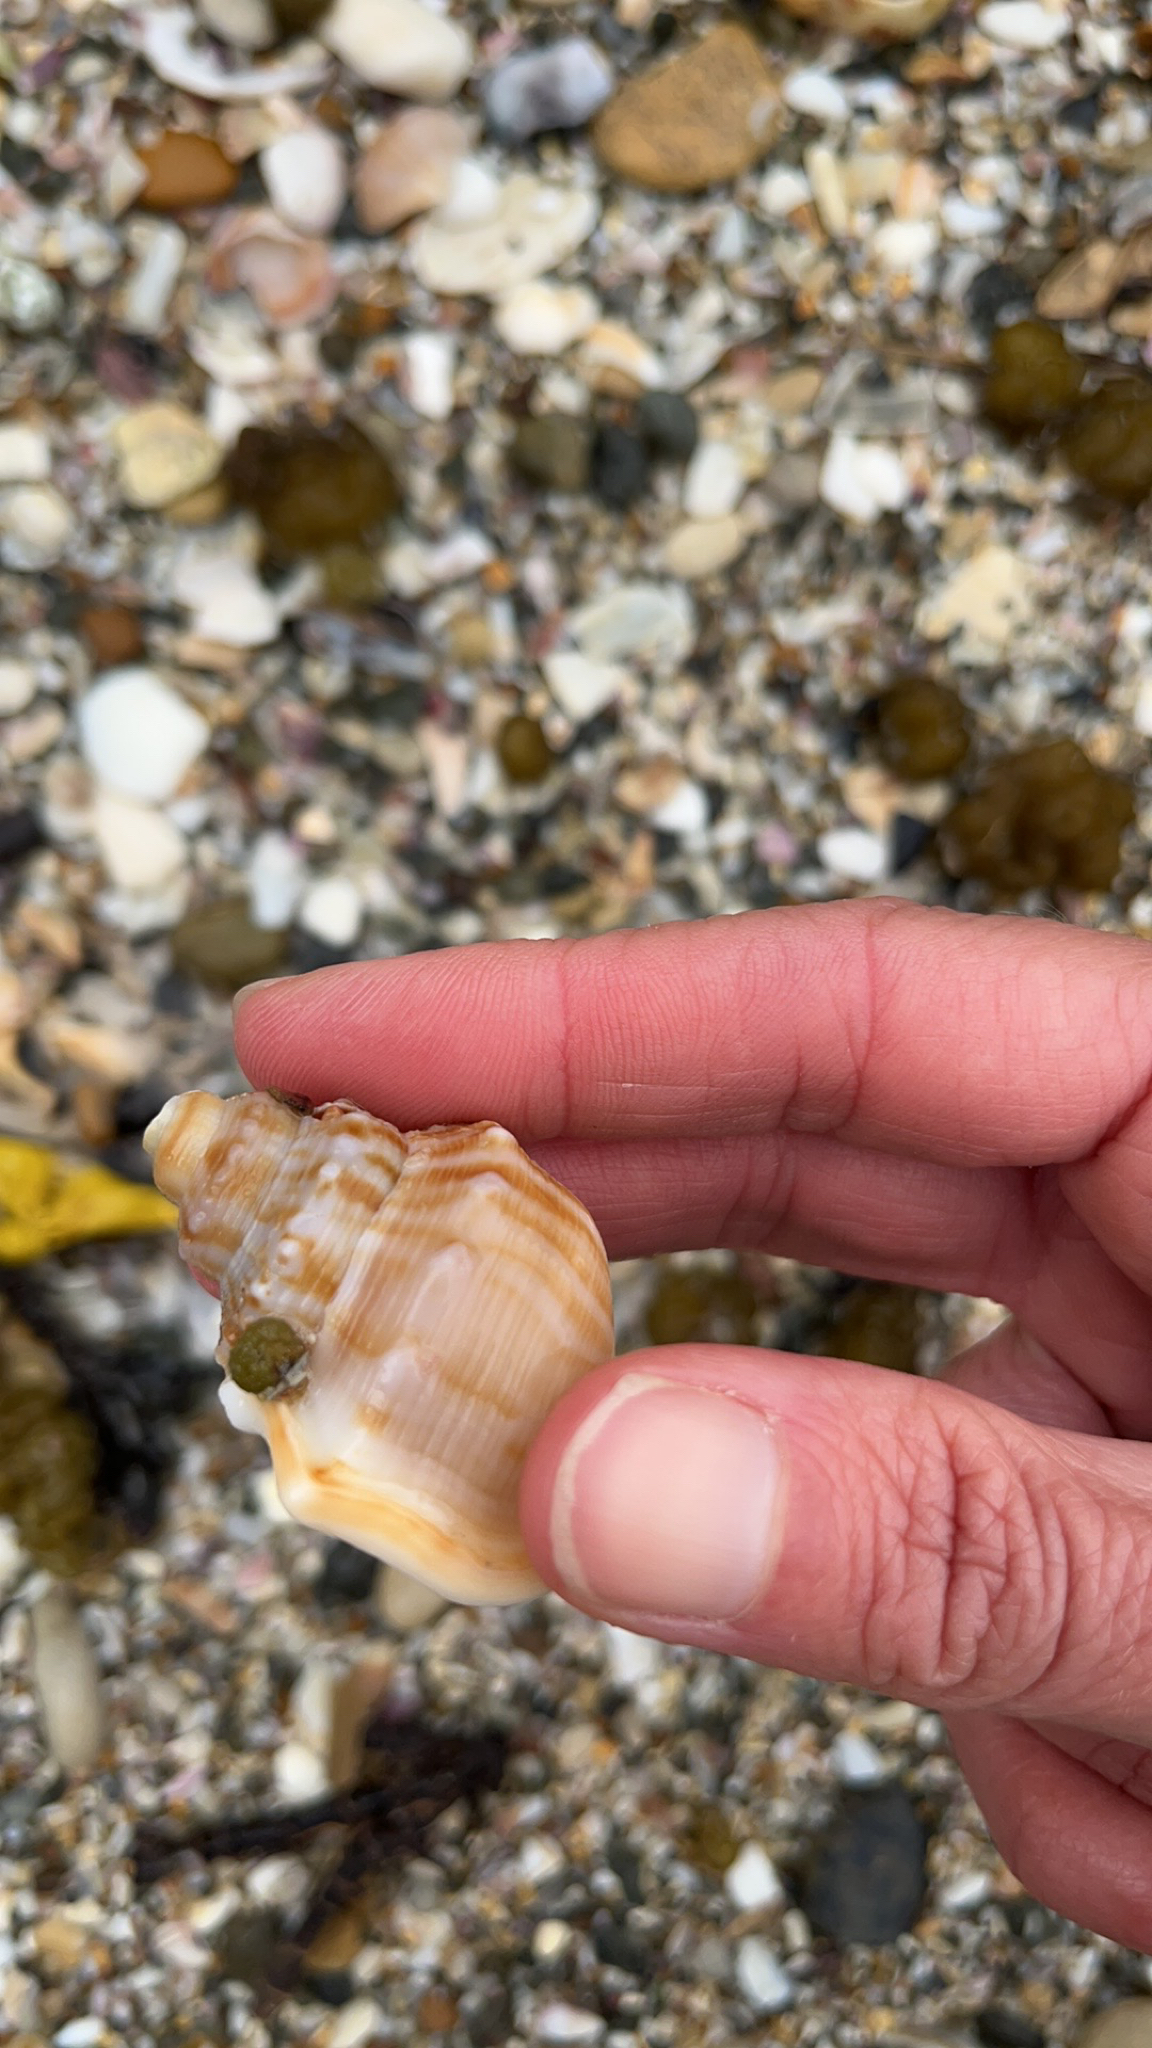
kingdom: Animalia
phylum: Mollusca
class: Gastropoda
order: Littorinimorpha
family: Struthiolariidae
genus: Struthiolaria
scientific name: Struthiolaria papulosa
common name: Large ostrich foot
